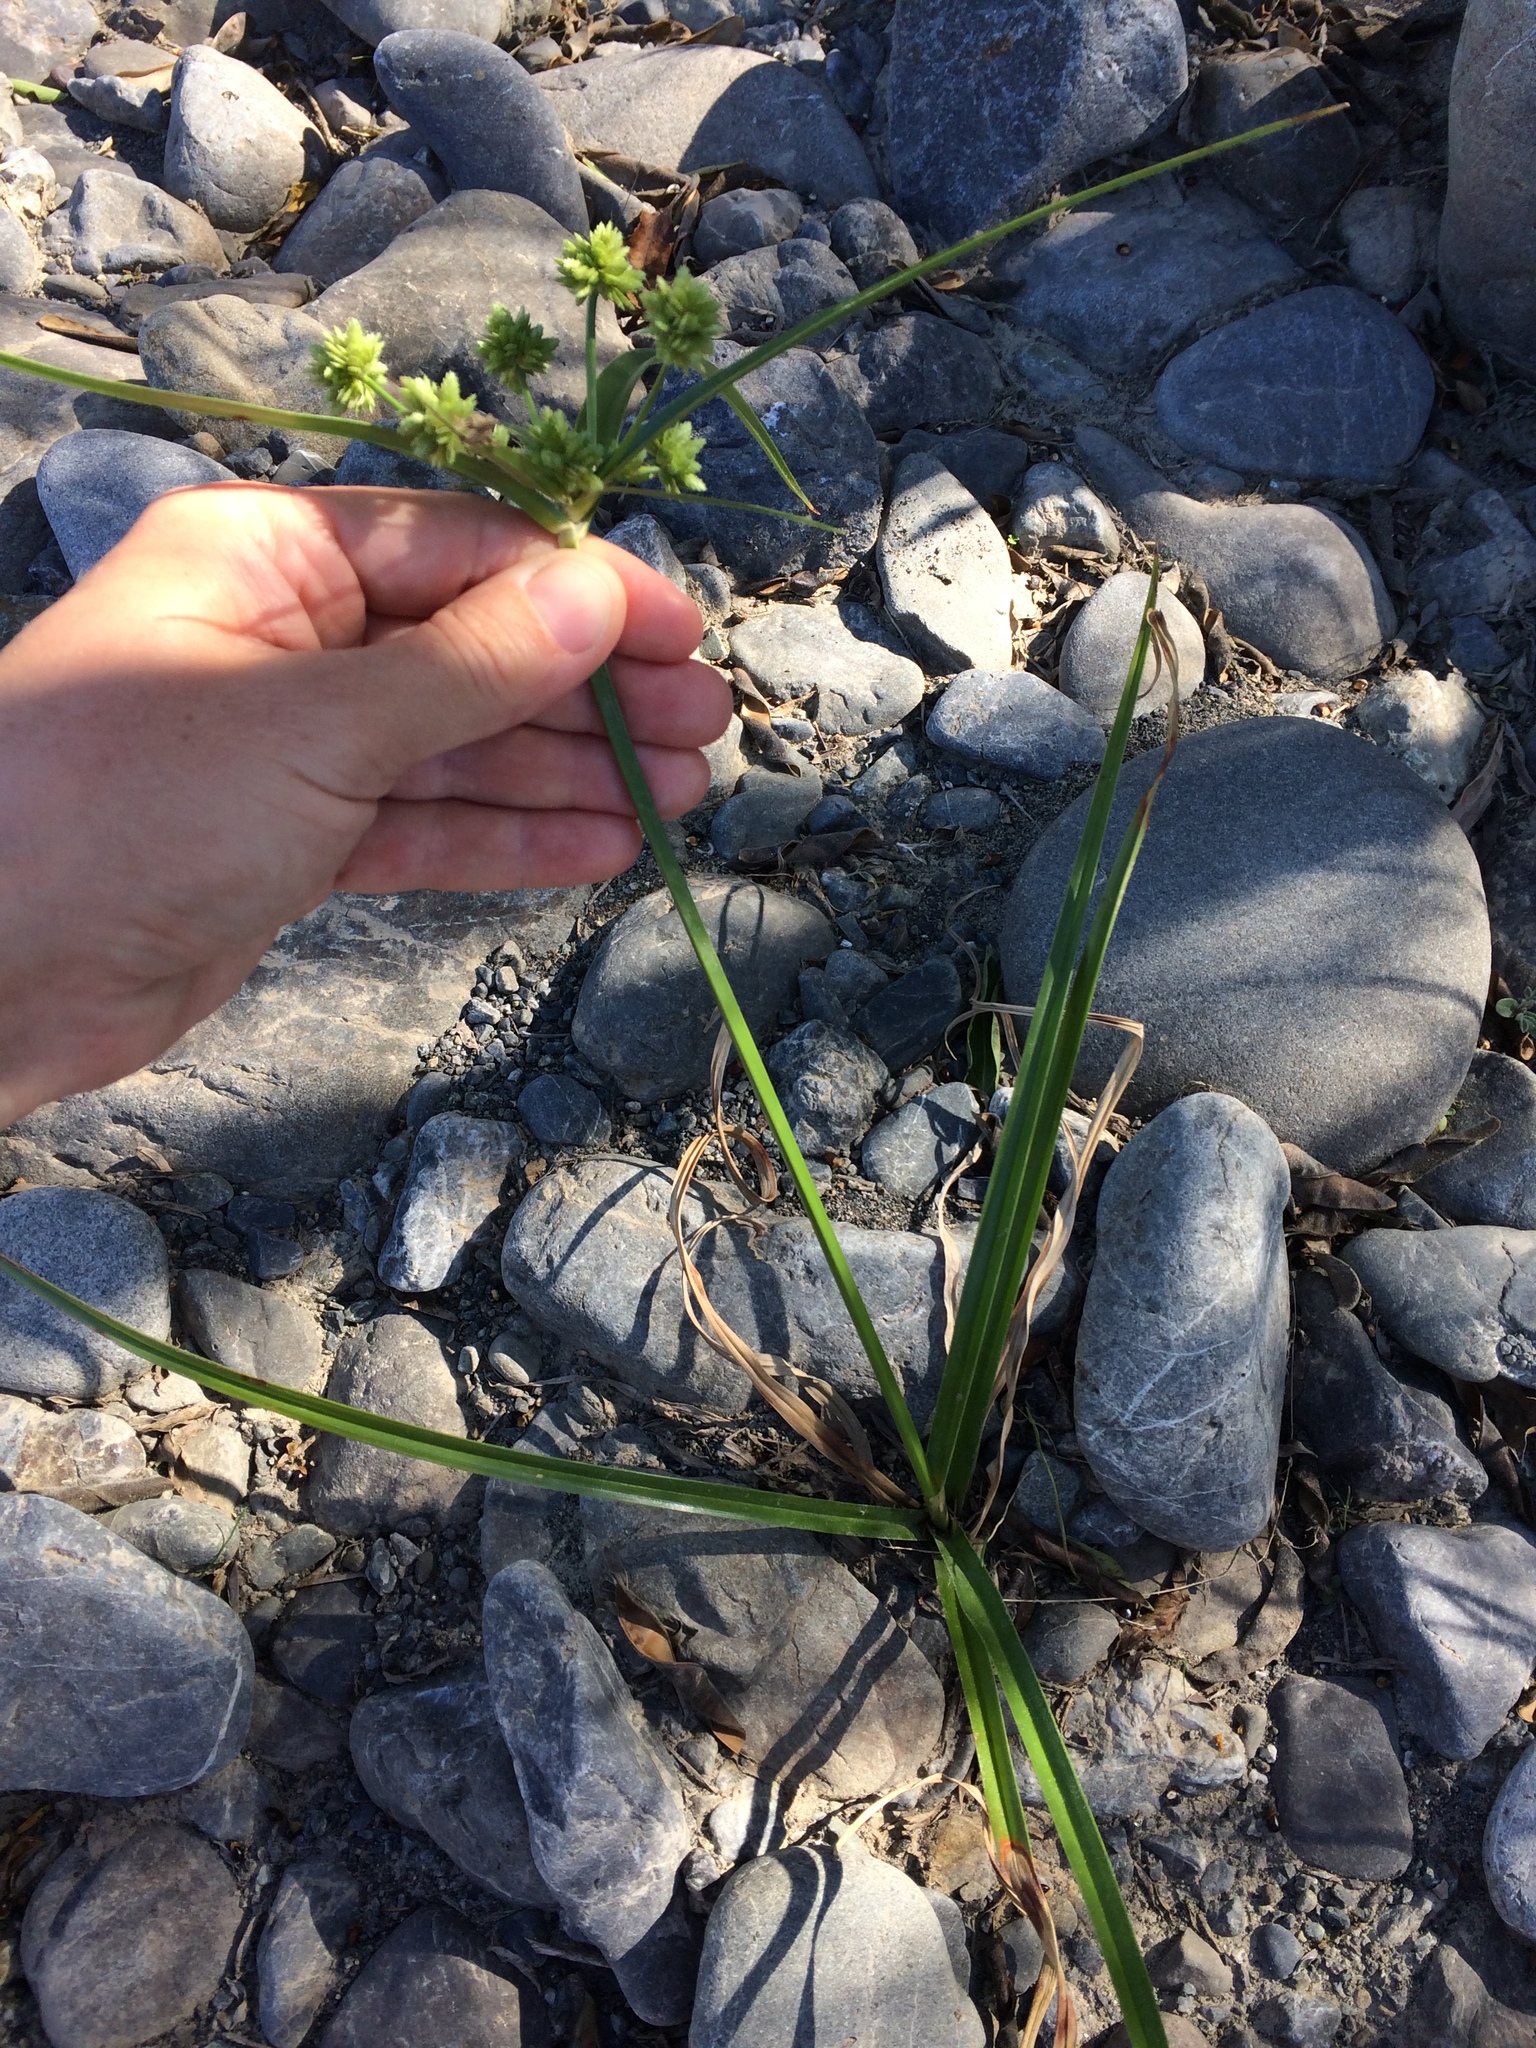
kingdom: Plantae
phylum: Tracheophyta
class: Liliopsida
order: Poales
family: Cyperaceae
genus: Cyperus
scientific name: Cyperus eragrostis
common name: Tall flatsedge
